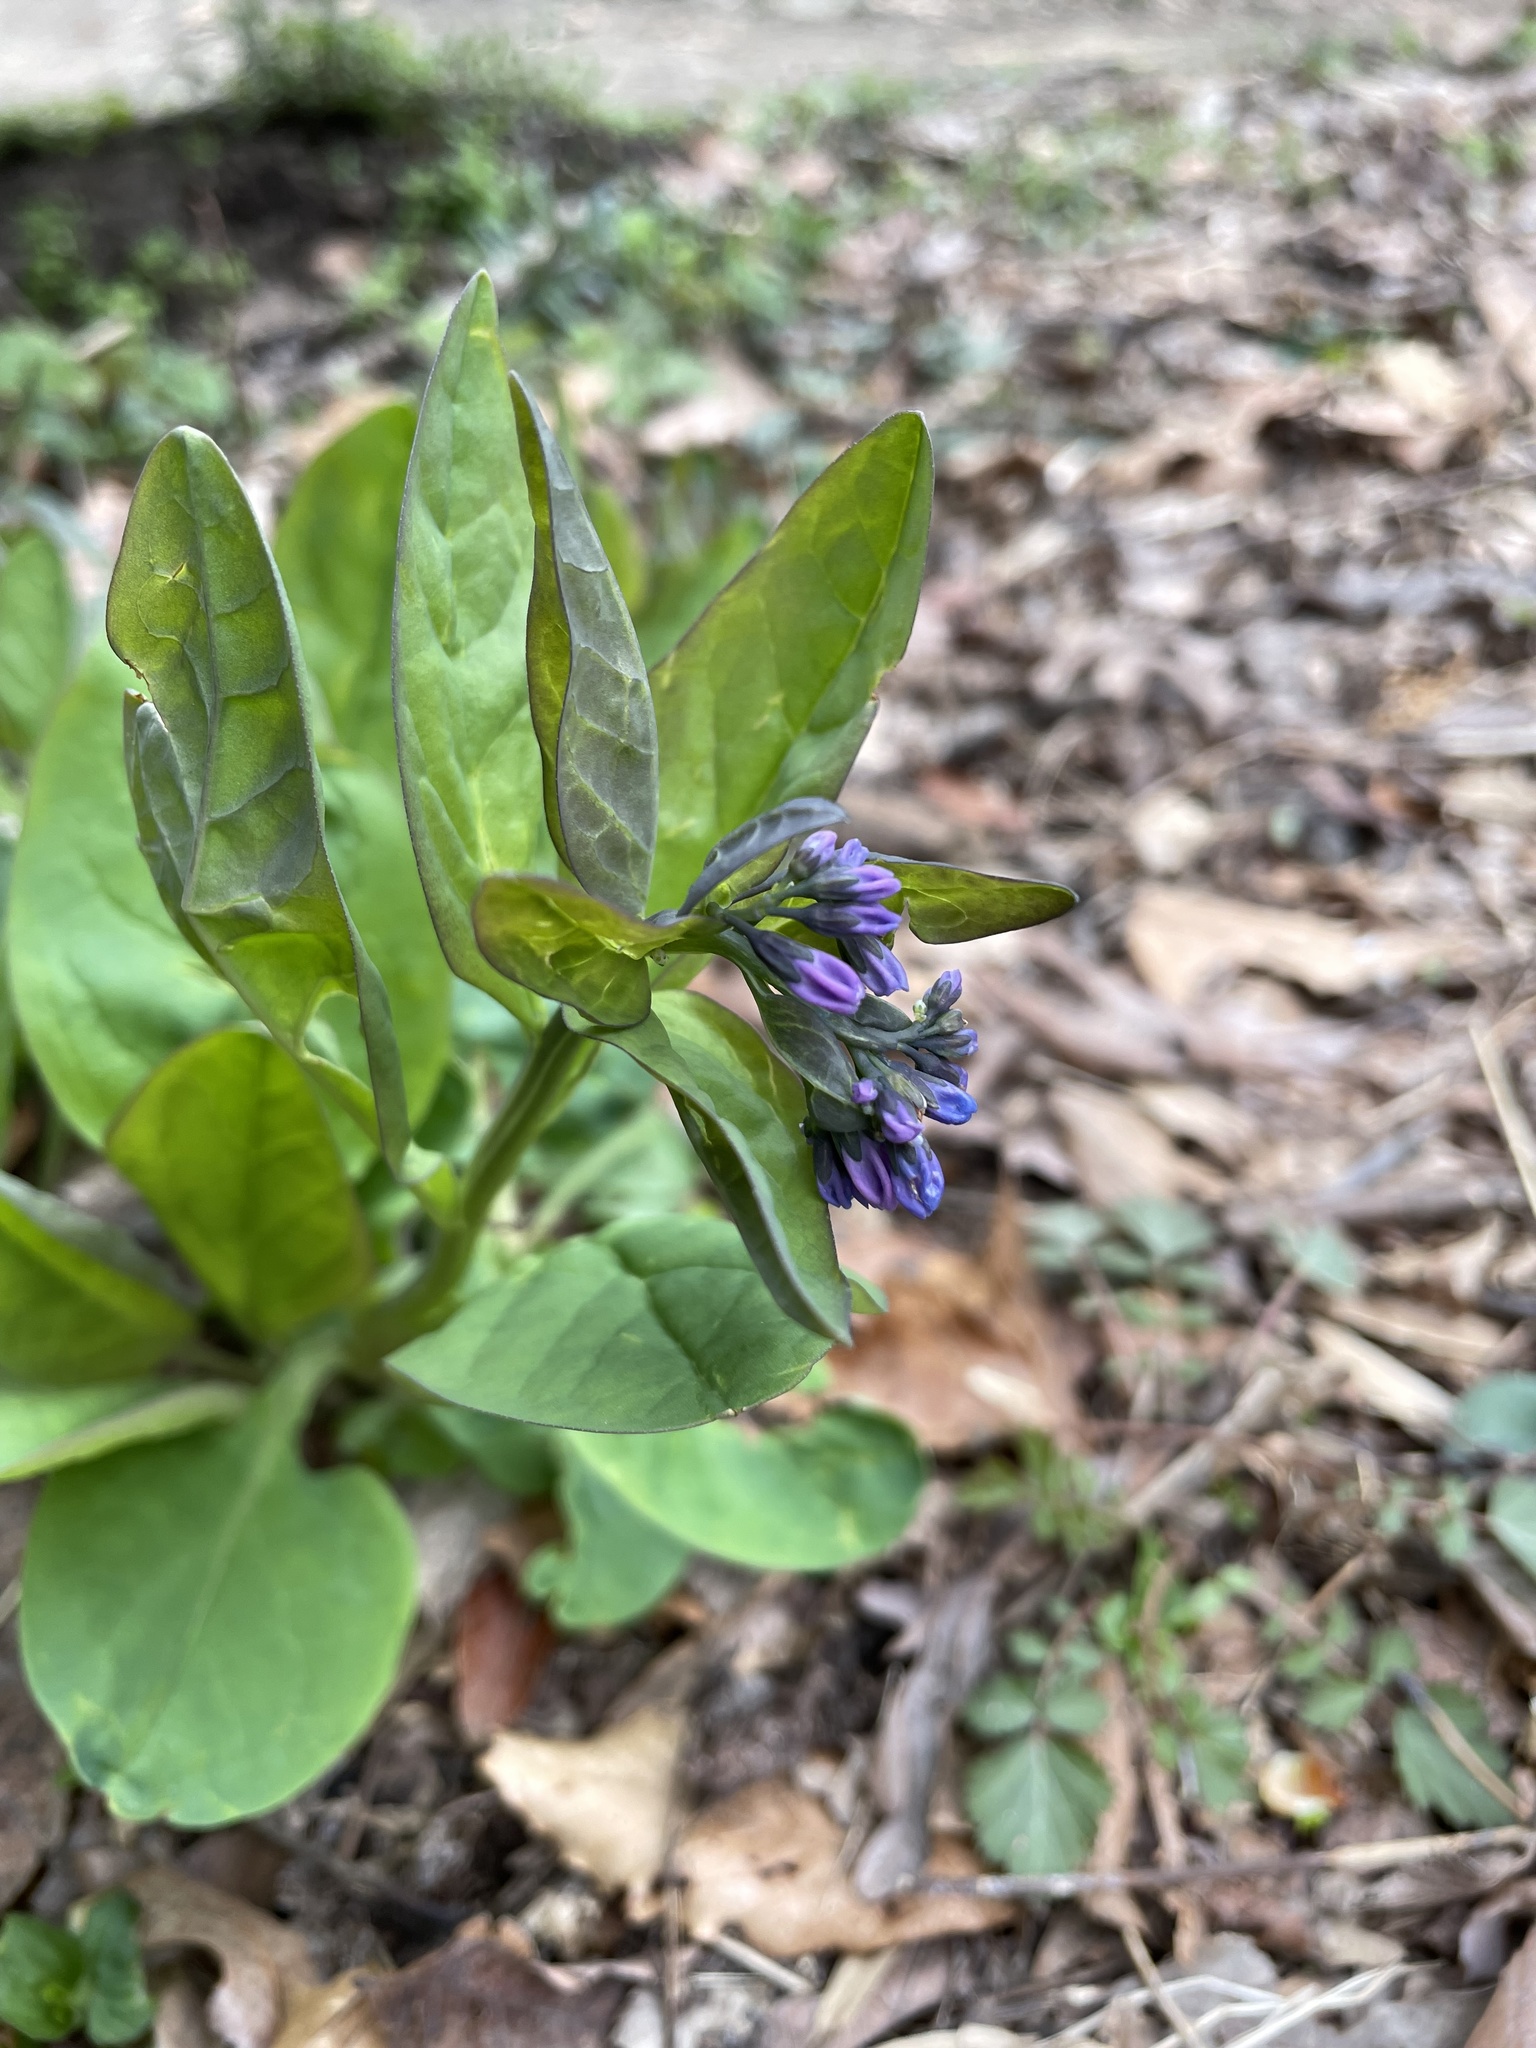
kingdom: Plantae
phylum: Tracheophyta
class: Magnoliopsida
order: Boraginales
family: Boraginaceae
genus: Mertensia
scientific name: Mertensia virginica
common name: Virginia bluebells
